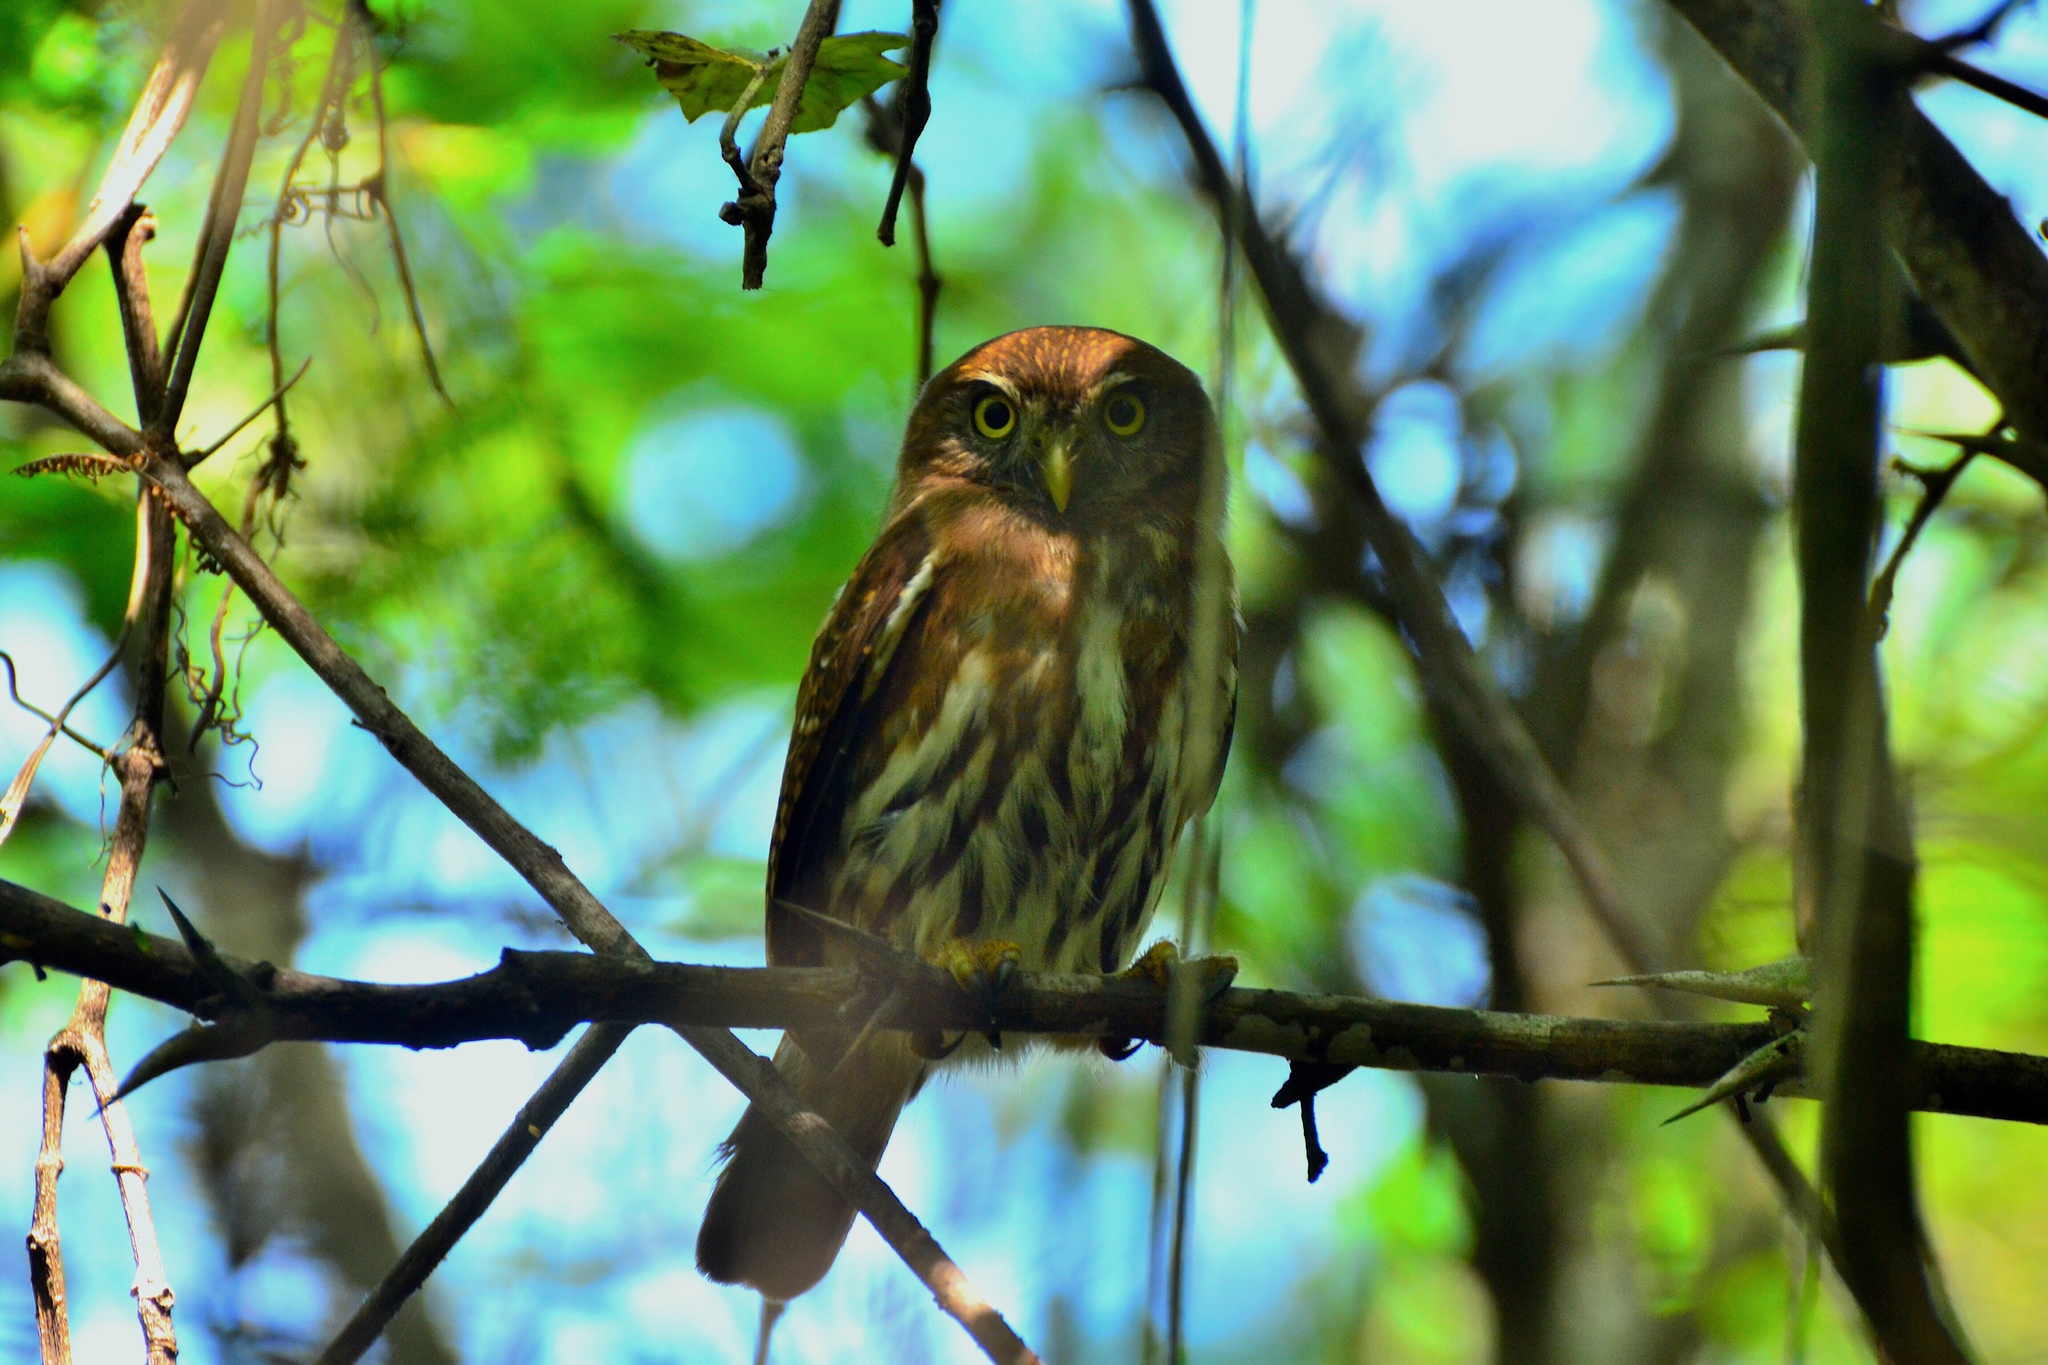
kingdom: Animalia
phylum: Chordata
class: Aves
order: Strigiformes
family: Strigidae
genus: Glaucidium
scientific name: Glaucidium brasilianum
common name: Ferruginous pygmy-owl
